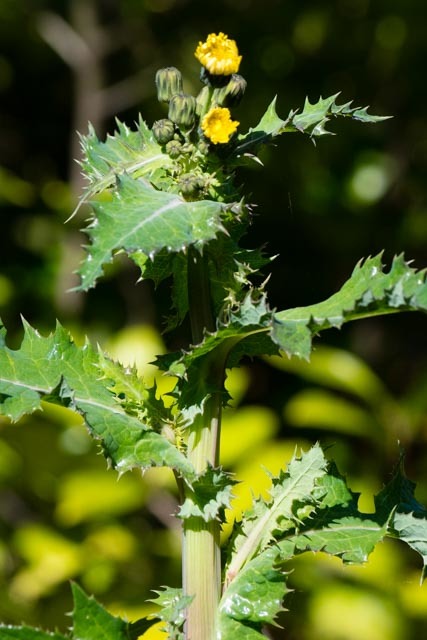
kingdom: Plantae
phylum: Tracheophyta
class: Magnoliopsida
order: Asterales
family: Asteraceae
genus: Sonchus
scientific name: Sonchus asper
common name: Prickly sow-thistle
